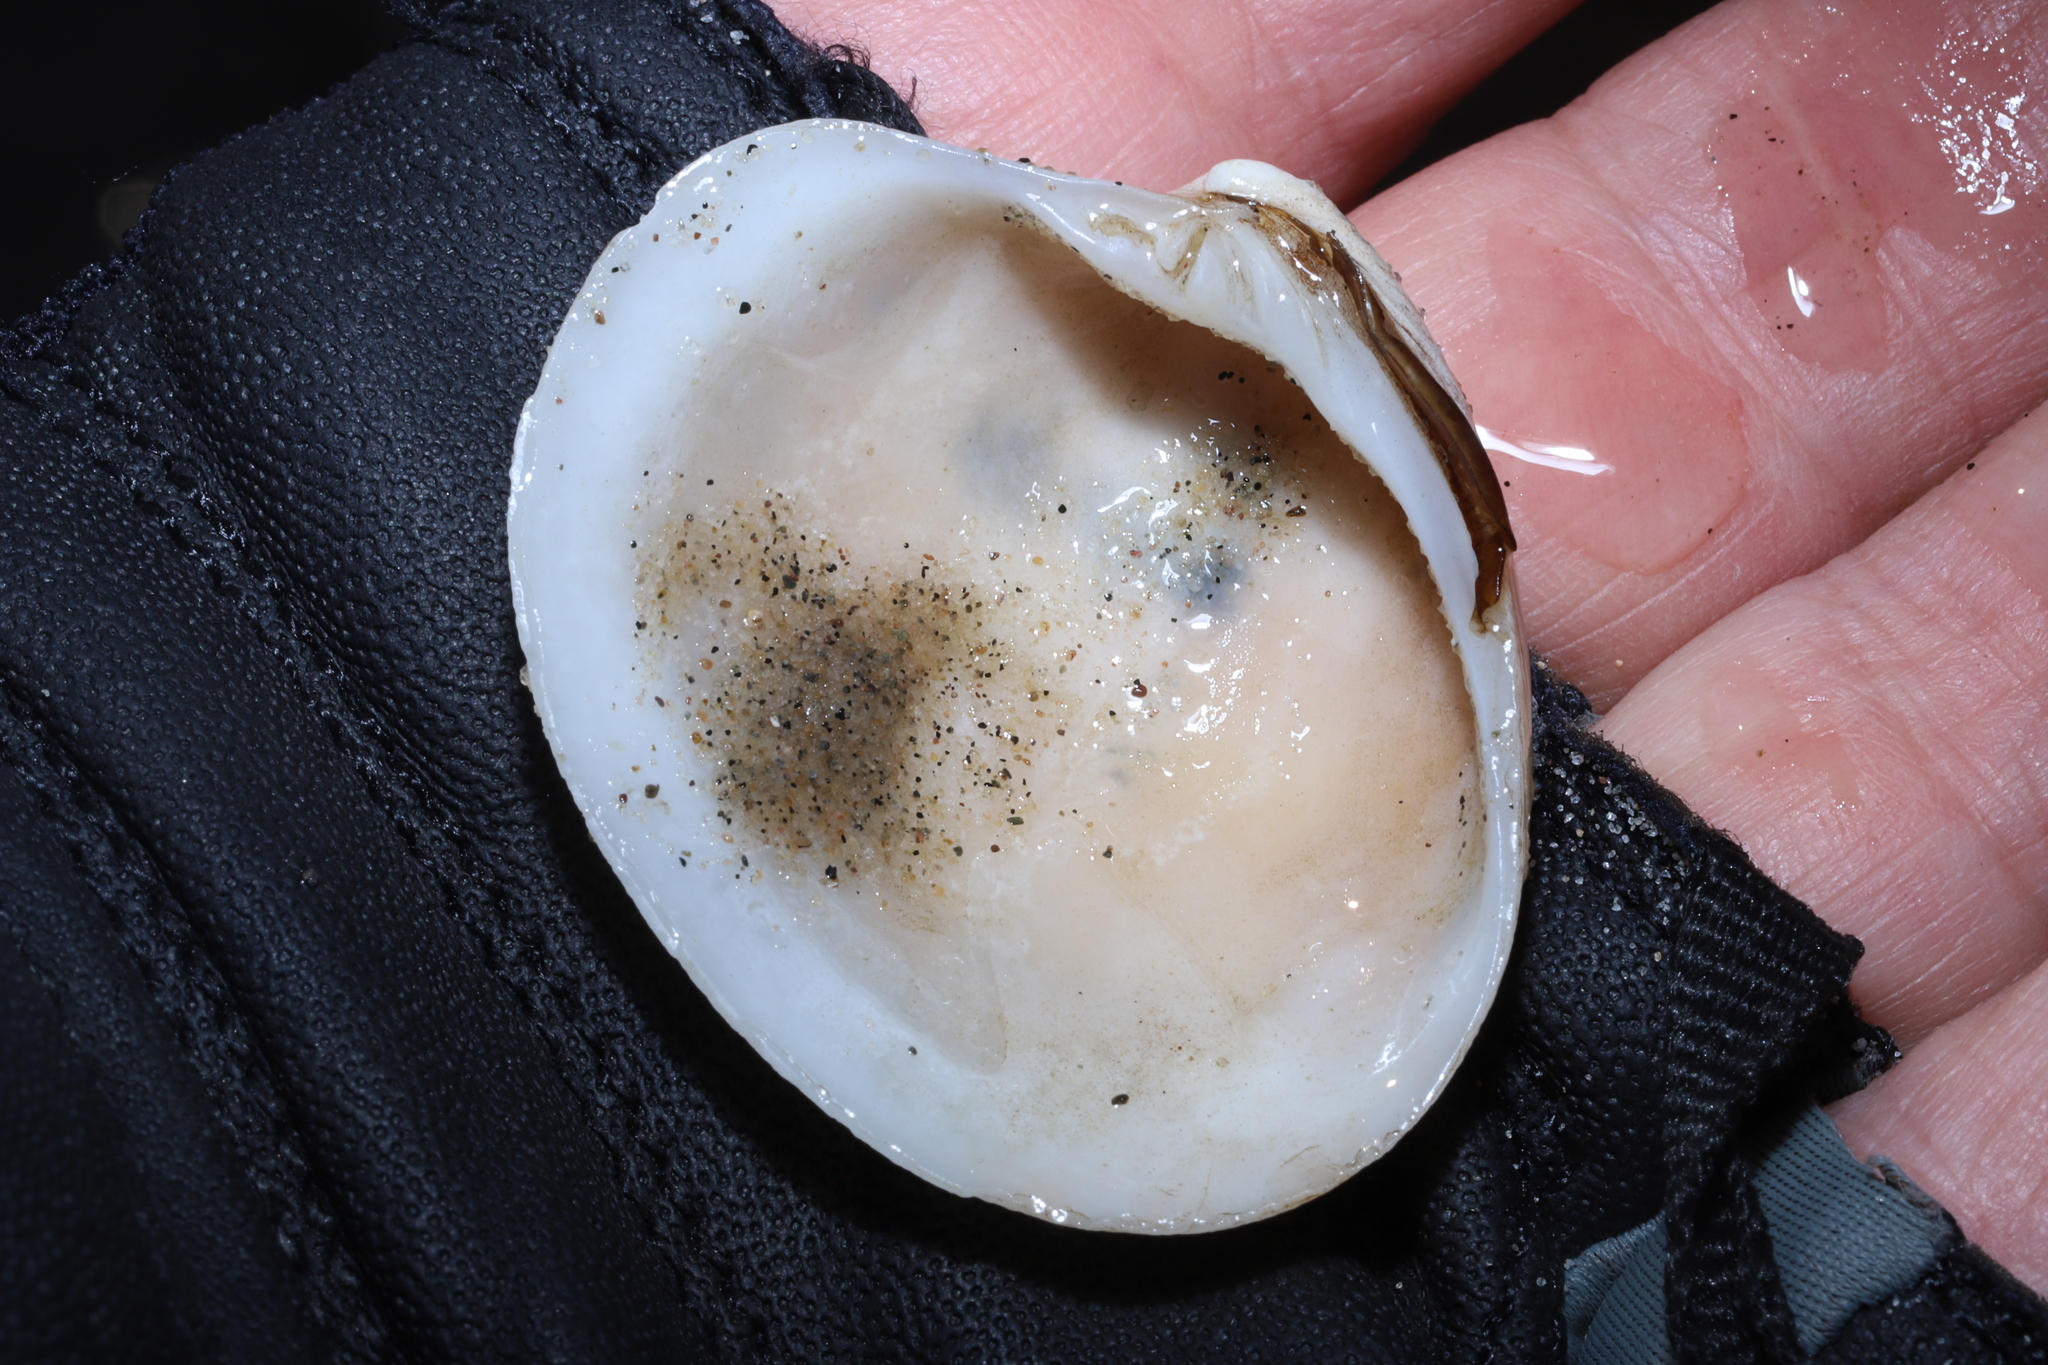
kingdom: Animalia
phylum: Mollusca
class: Bivalvia
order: Venerida
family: Veneridae
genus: Agriopoma
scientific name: Agriopoma morrhuanum
